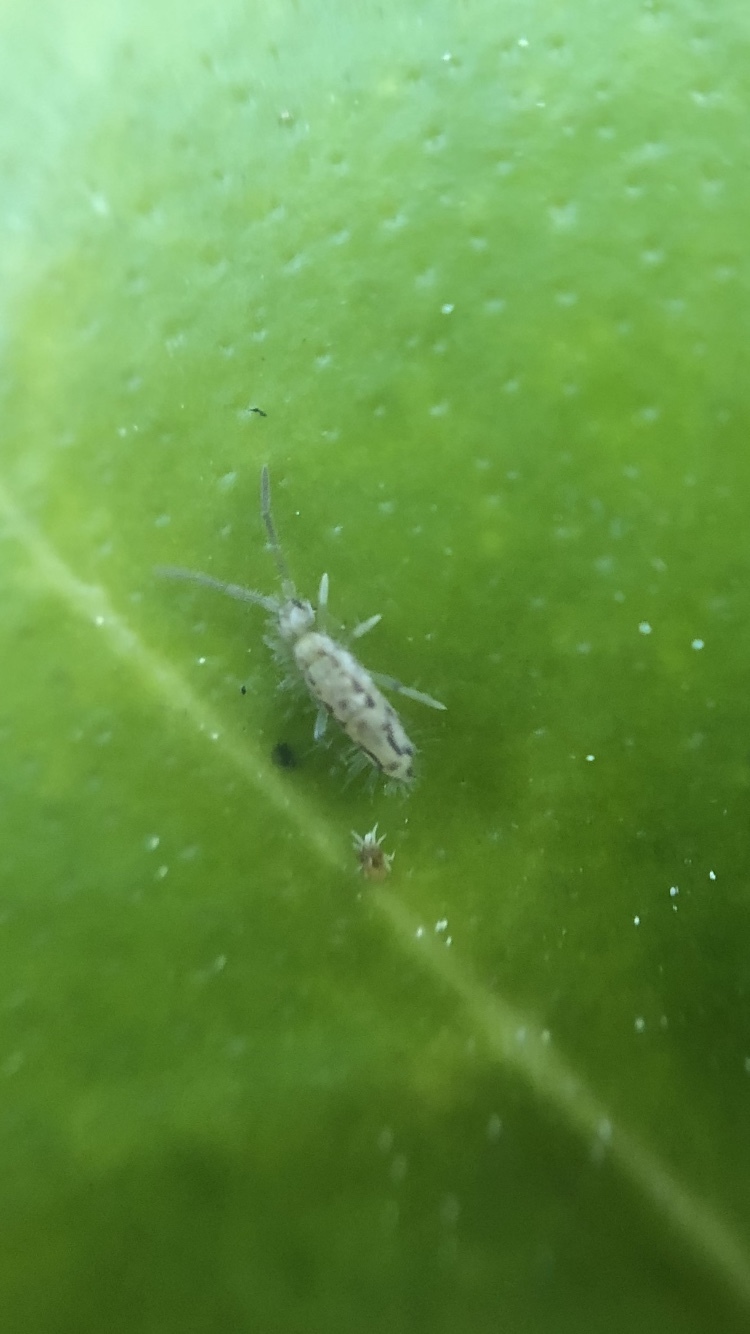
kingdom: Animalia
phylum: Arthropoda
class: Collembola
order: Entomobryomorpha
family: Entomobryidae
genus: Entomobrya
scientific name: Entomobrya intermedia
